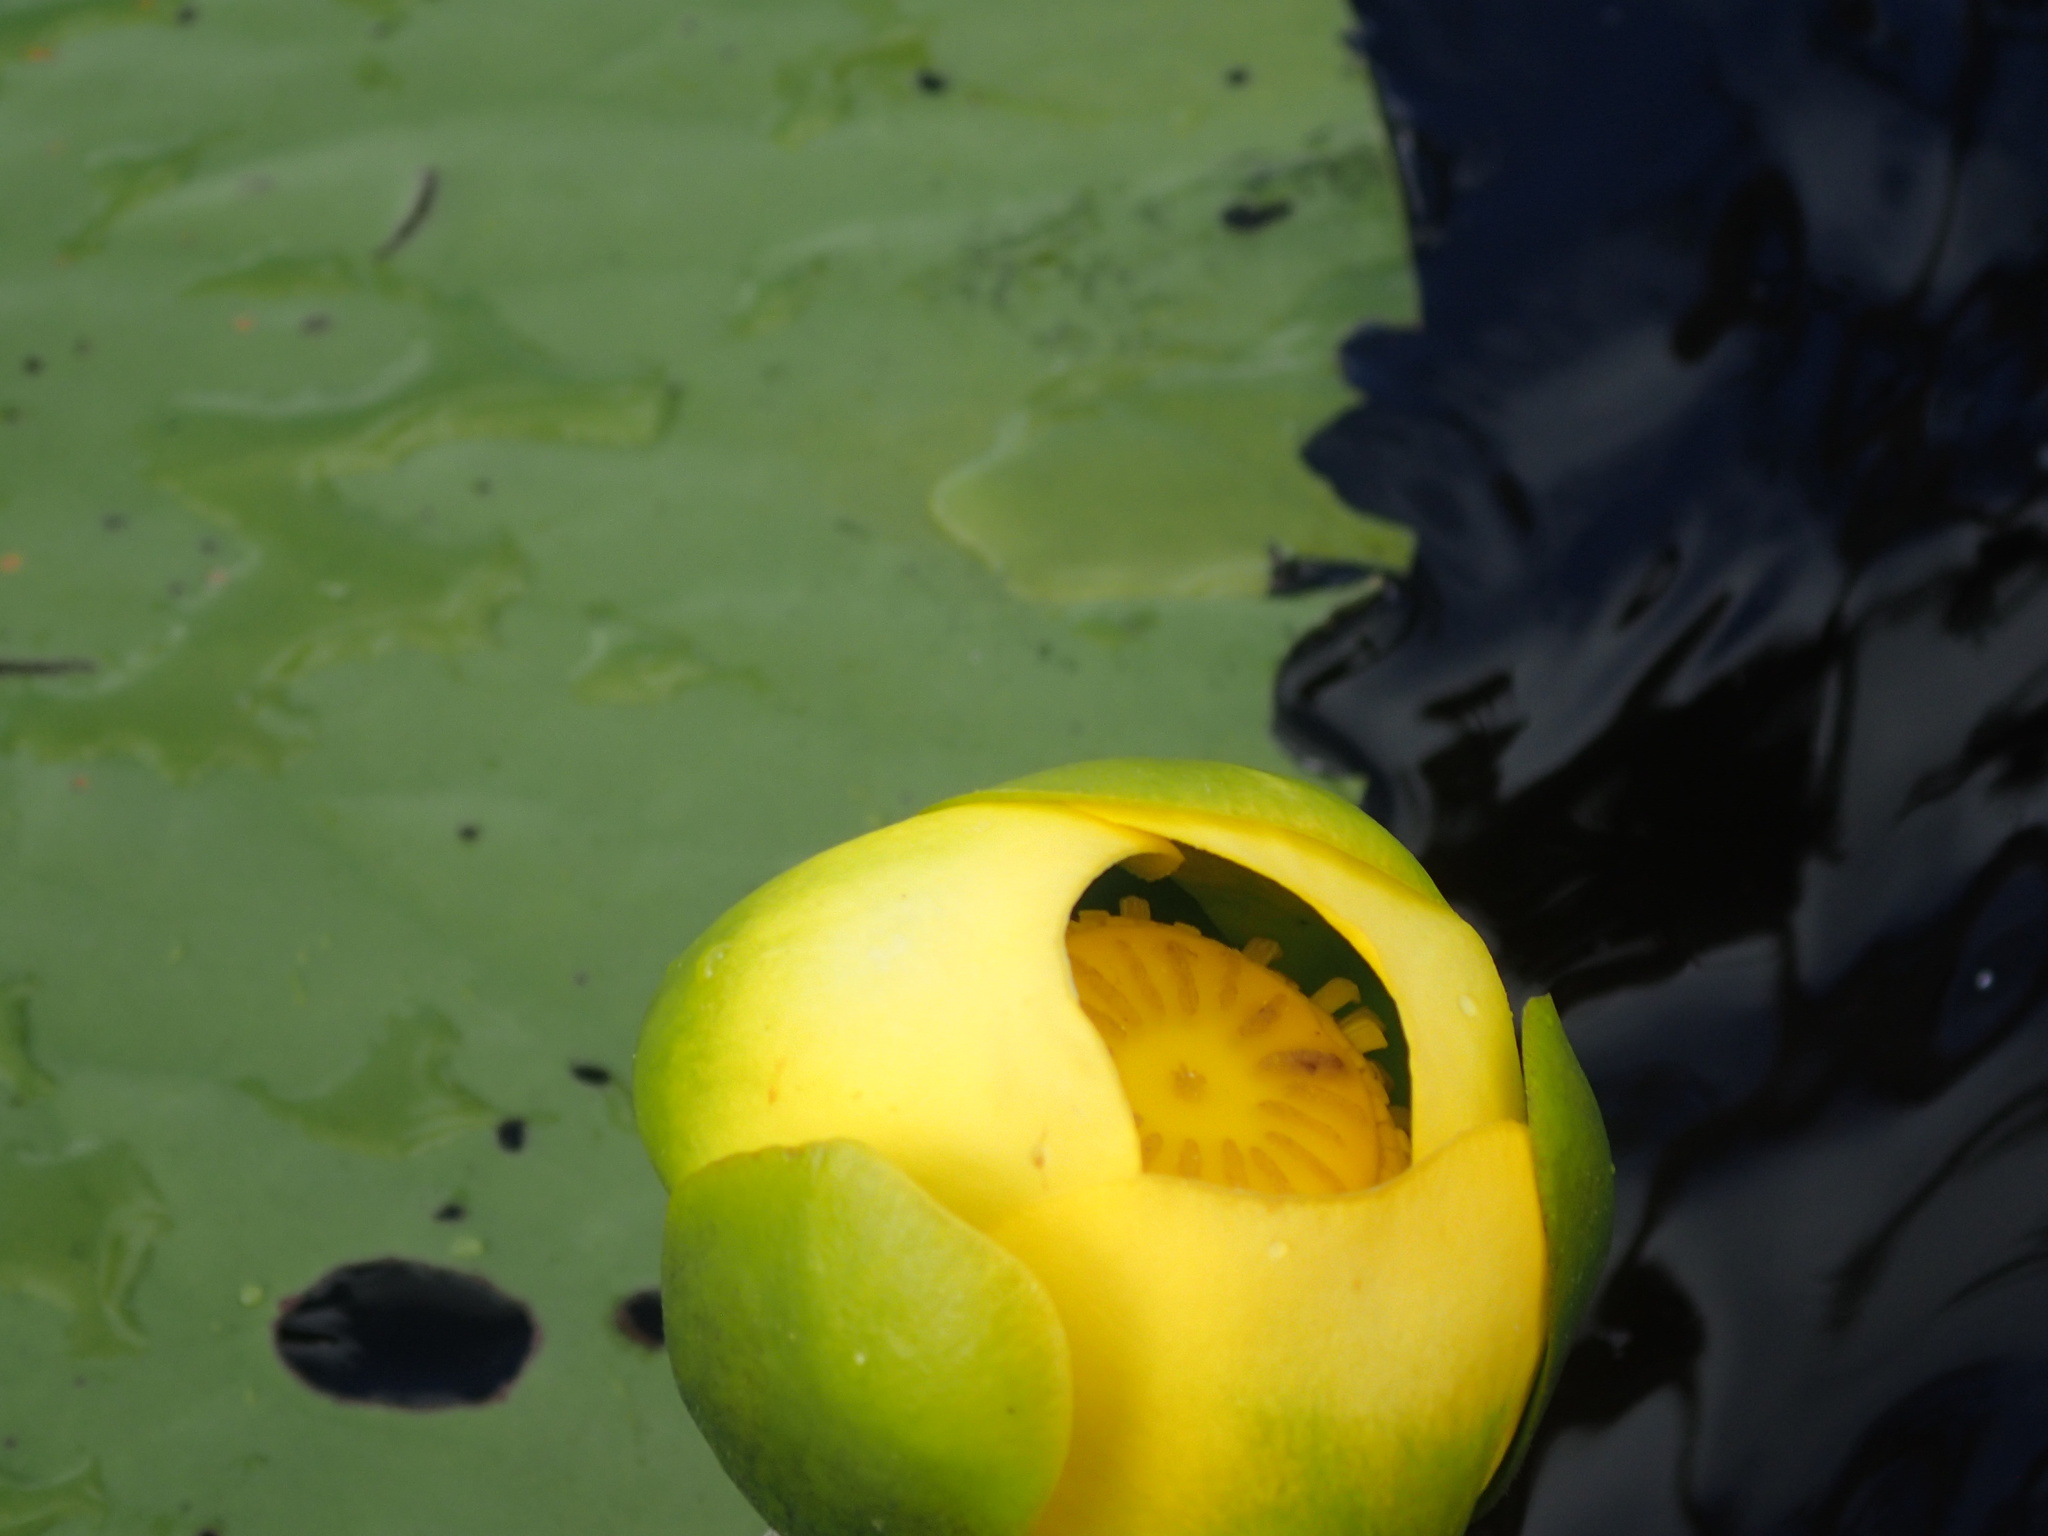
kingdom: Plantae
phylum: Tracheophyta
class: Magnoliopsida
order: Nymphaeales
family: Nymphaeaceae
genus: Nuphar
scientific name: Nuphar advena
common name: Spatter-dock
